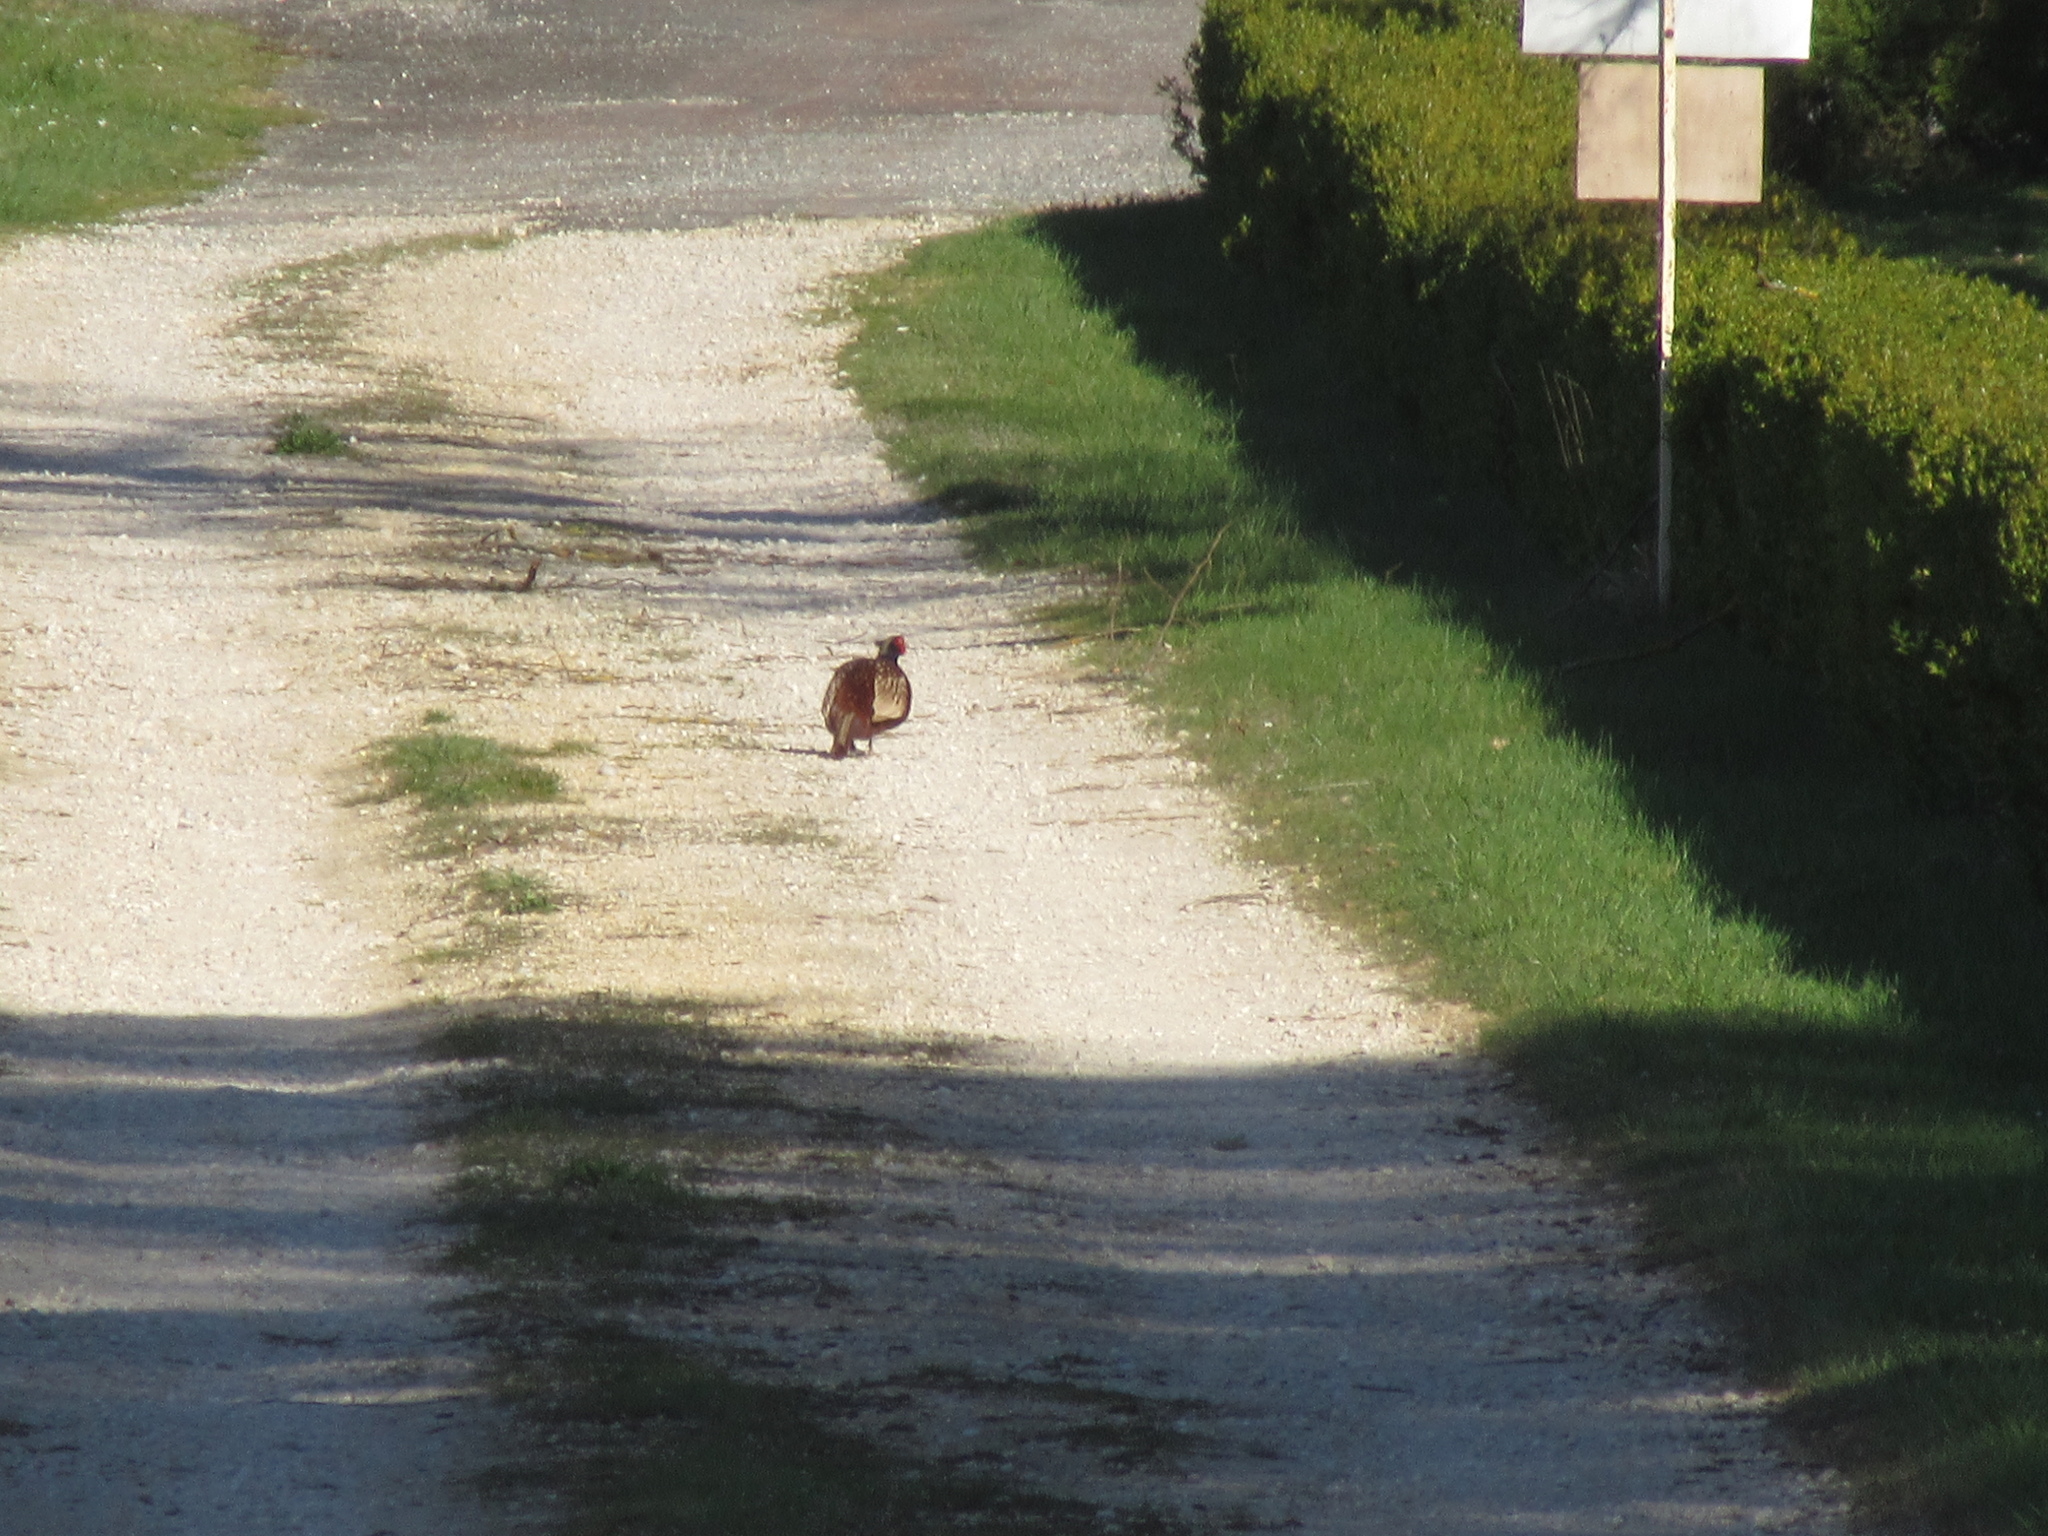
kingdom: Animalia
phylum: Chordata
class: Aves
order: Galliformes
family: Phasianidae
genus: Phasianus
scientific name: Phasianus colchicus
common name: Common pheasant
